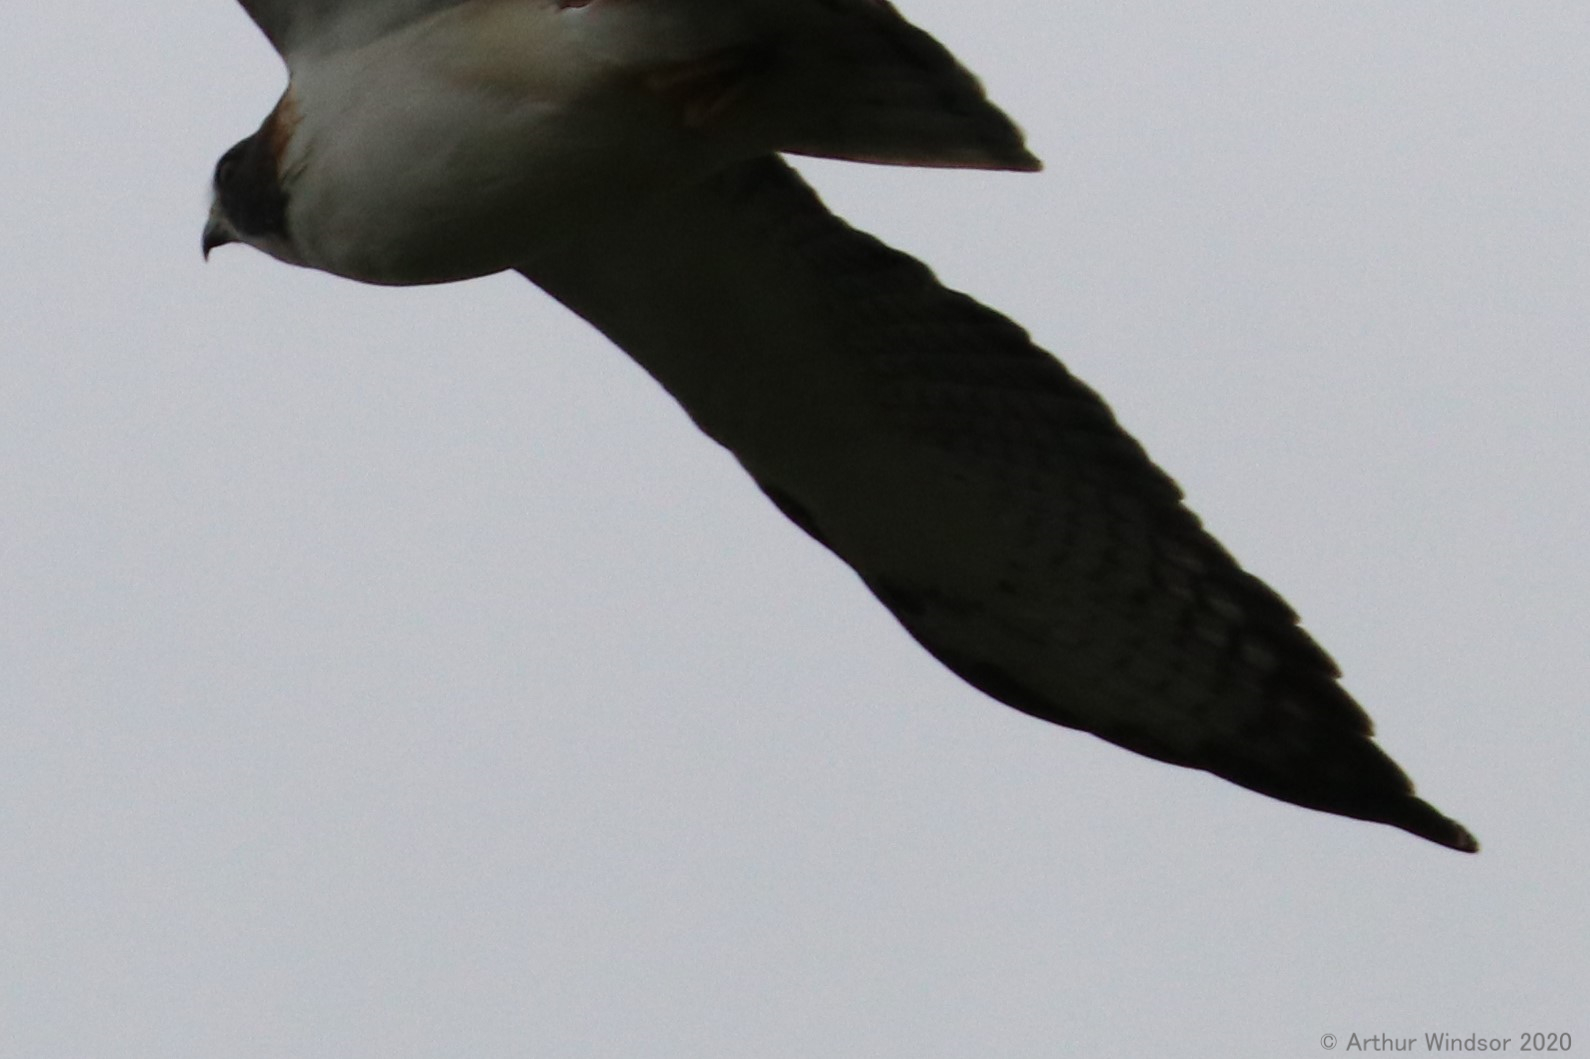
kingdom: Animalia
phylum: Chordata
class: Aves
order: Accipitriformes
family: Accipitridae
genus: Buteo
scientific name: Buteo brachyurus
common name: Short-tailed hawk
